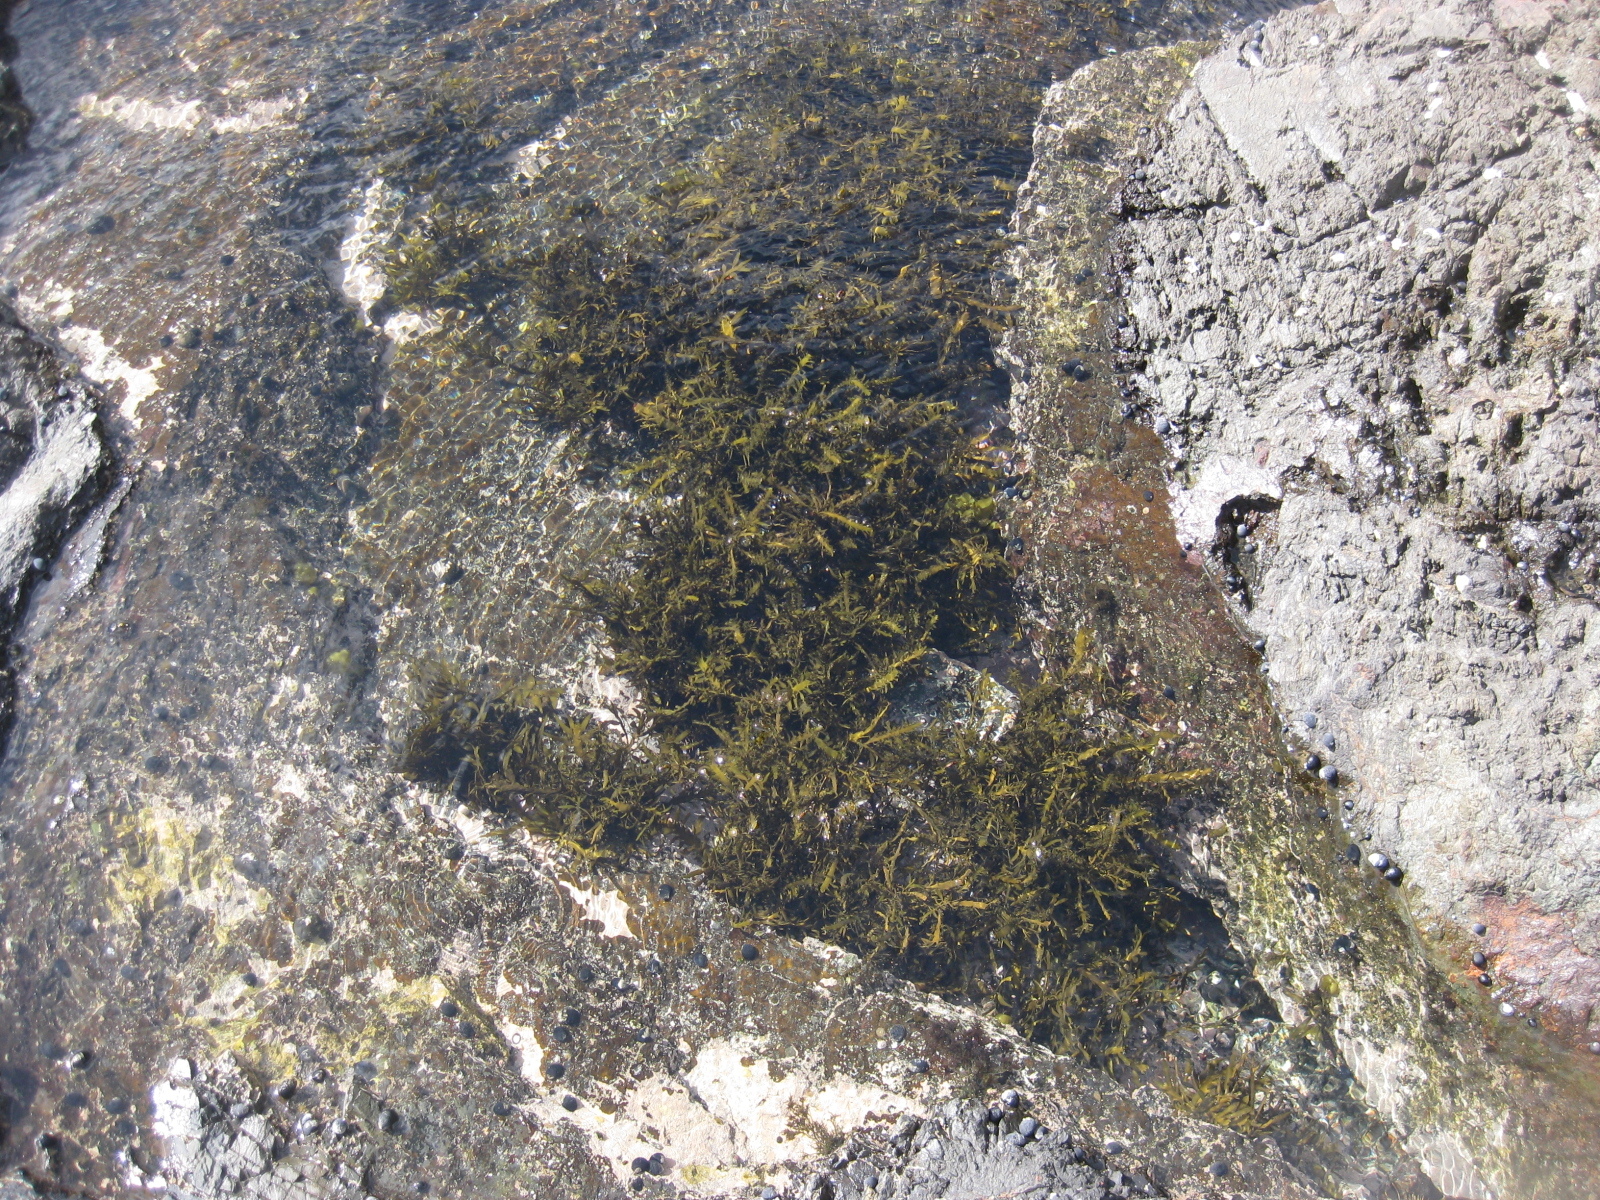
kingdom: Chromista
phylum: Ochrophyta
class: Phaeophyceae
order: Fucales
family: Sargassaceae
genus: Carpophyllum
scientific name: Carpophyllum maschalocarpum
